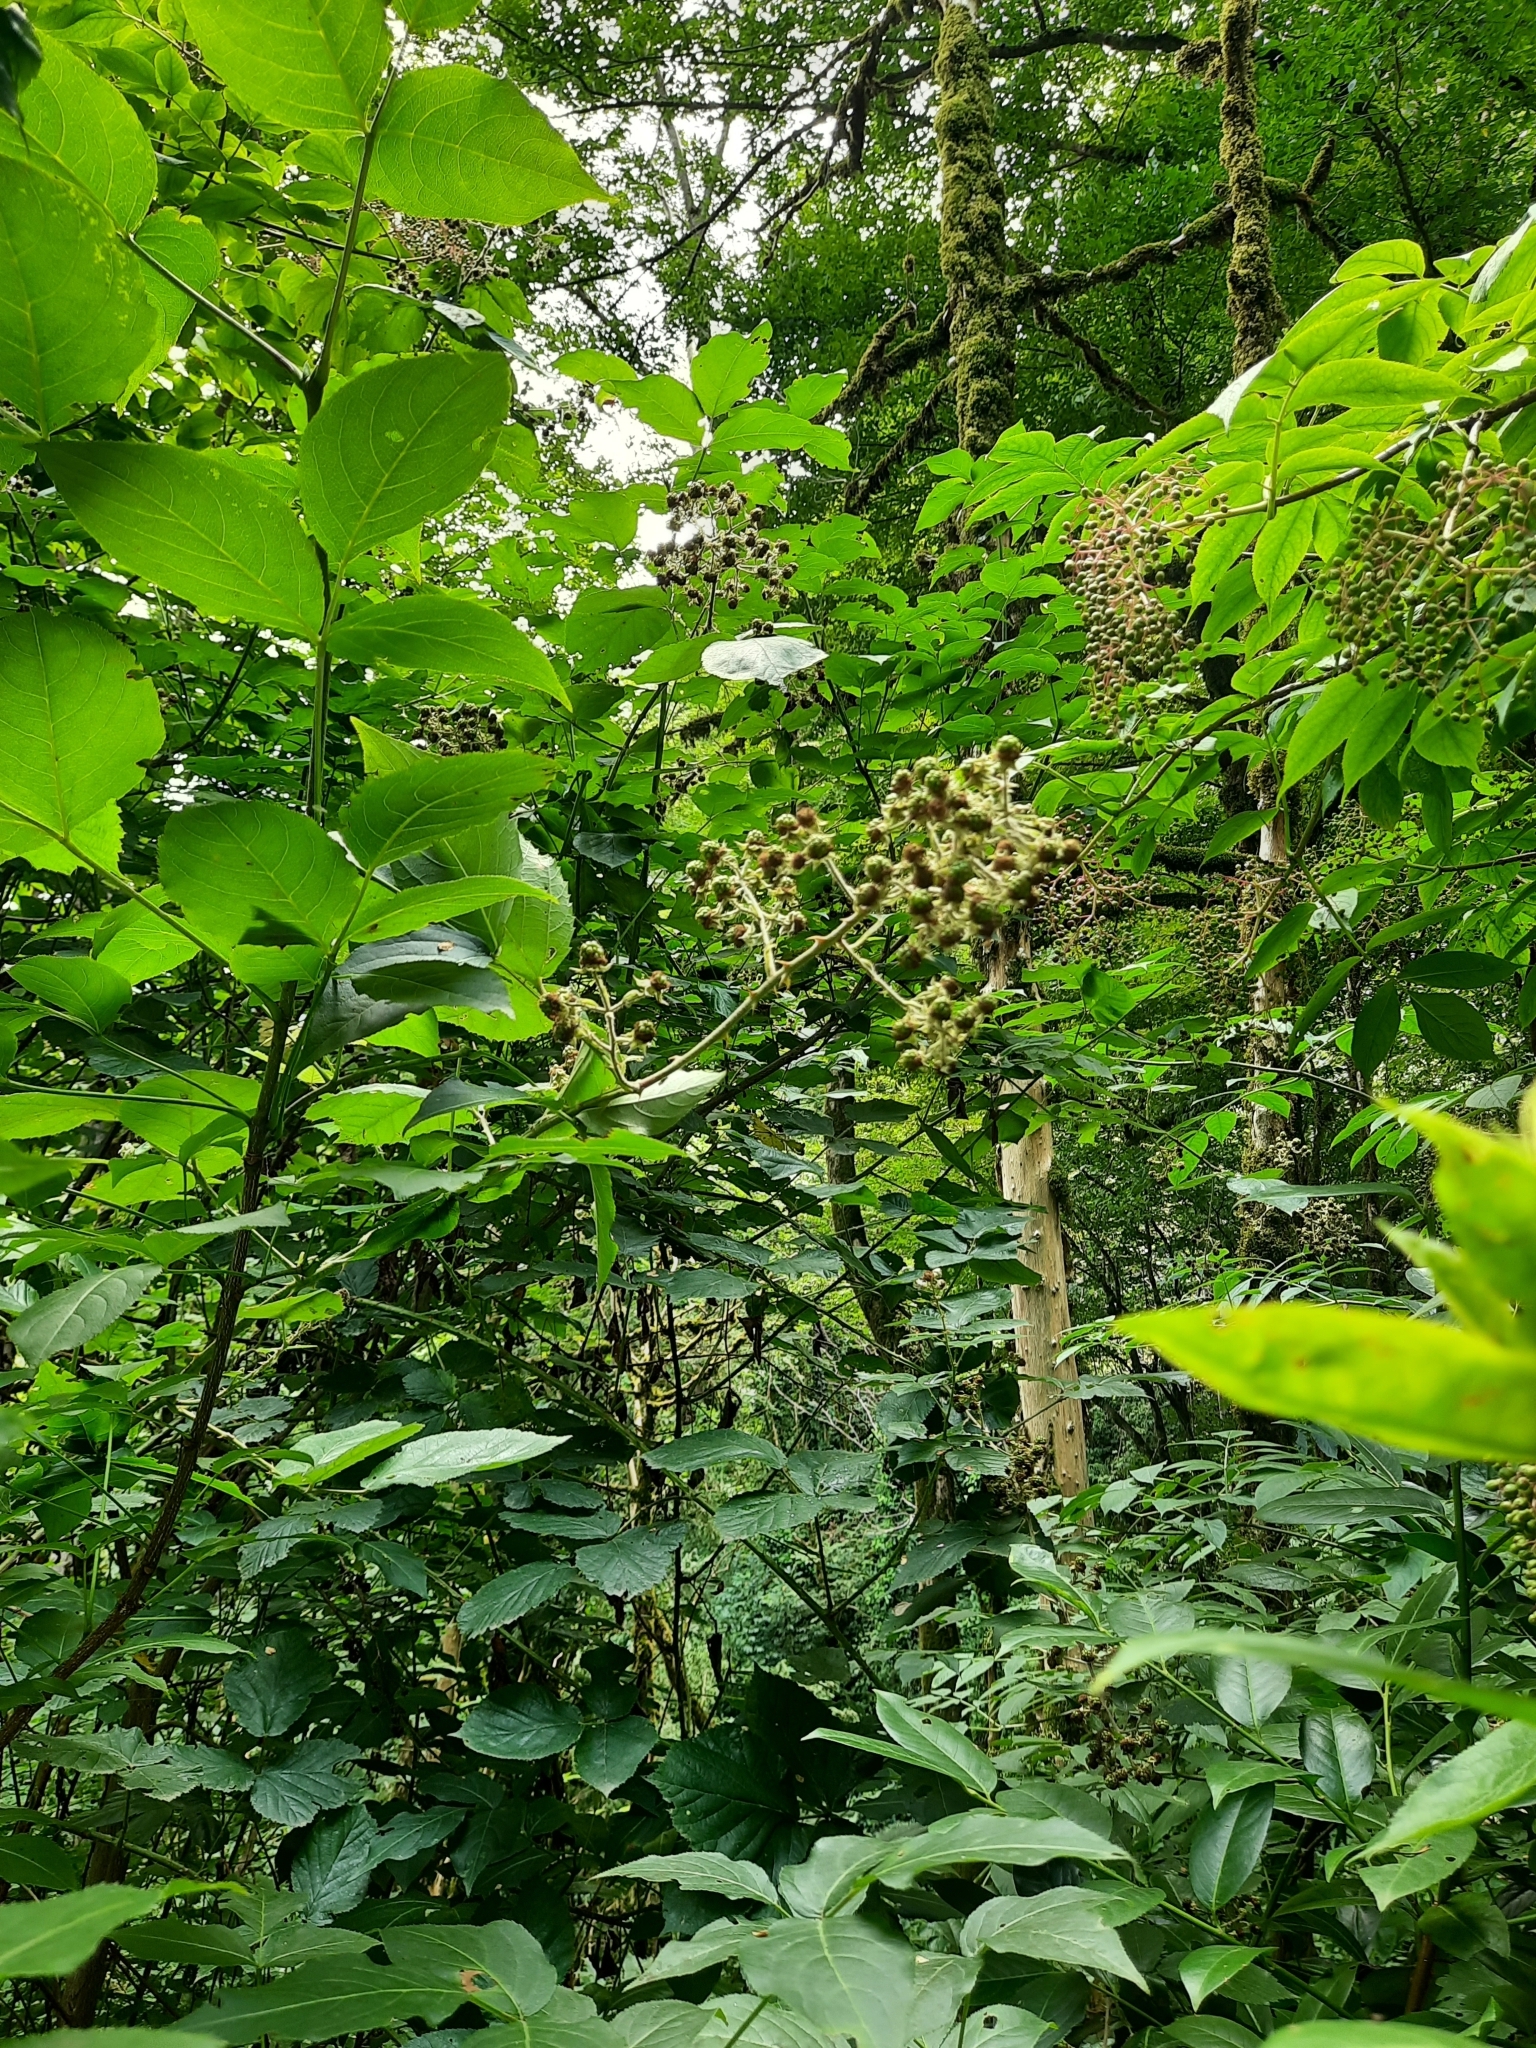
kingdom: Plantae
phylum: Tracheophyta
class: Magnoliopsida
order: Dipsacales
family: Viburnaceae
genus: Sambucus
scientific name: Sambucus nigra
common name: Elder
